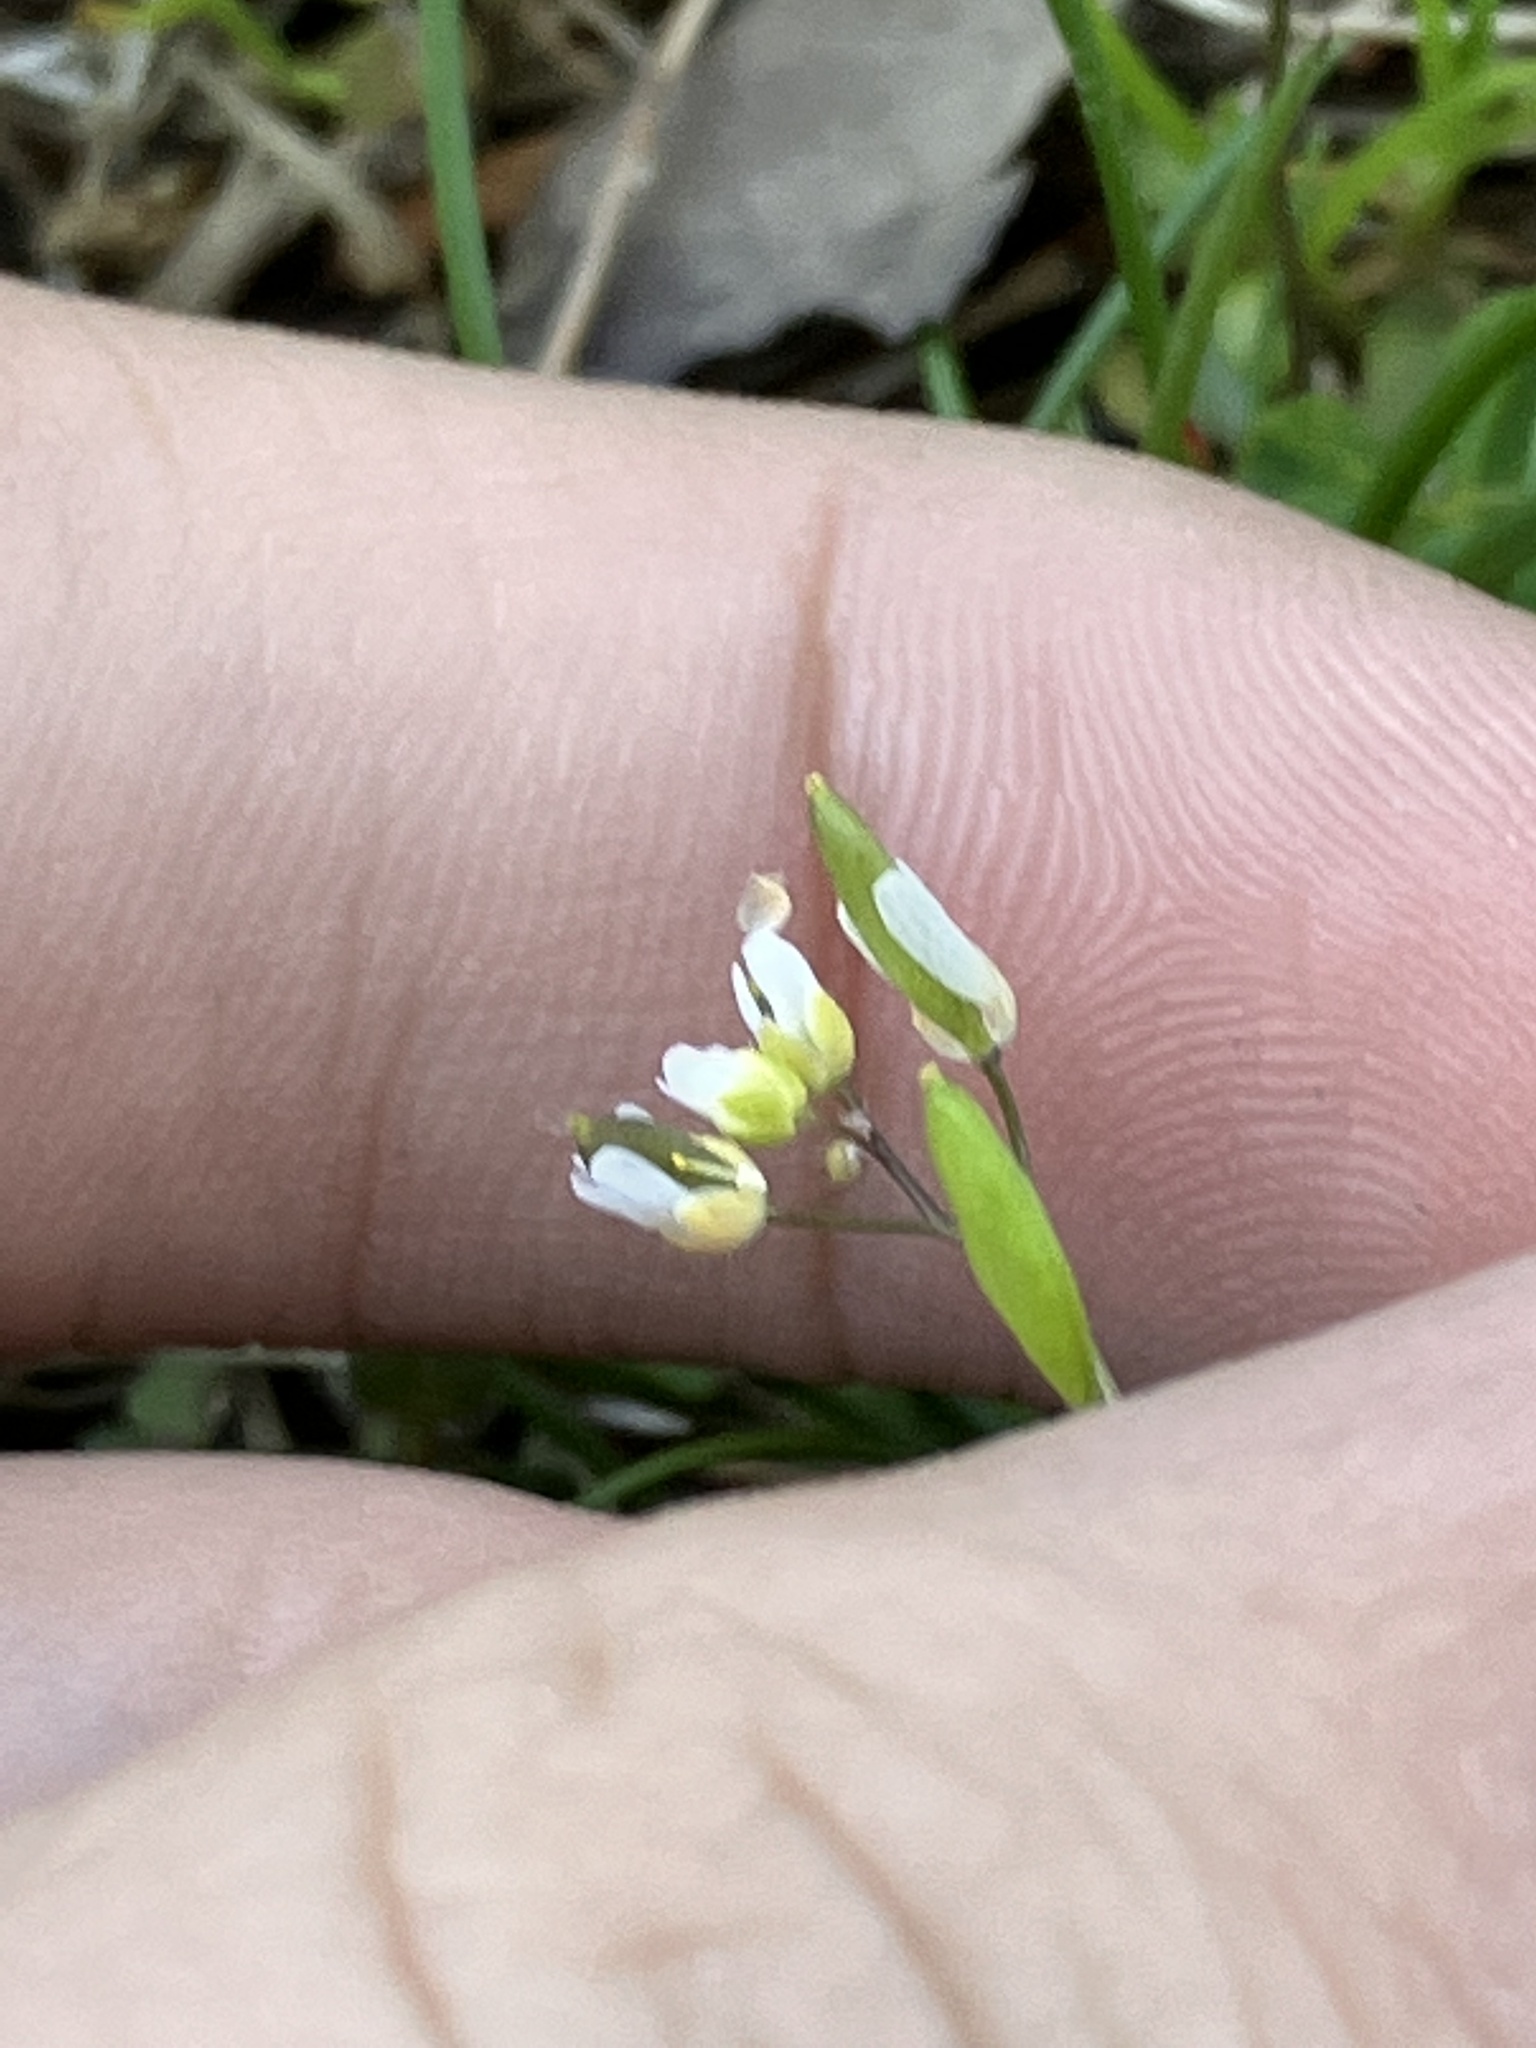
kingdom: Plantae
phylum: Tracheophyta
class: Magnoliopsida
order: Brassicales
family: Brassicaceae
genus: Draba
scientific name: Draba verna
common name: Spring draba
